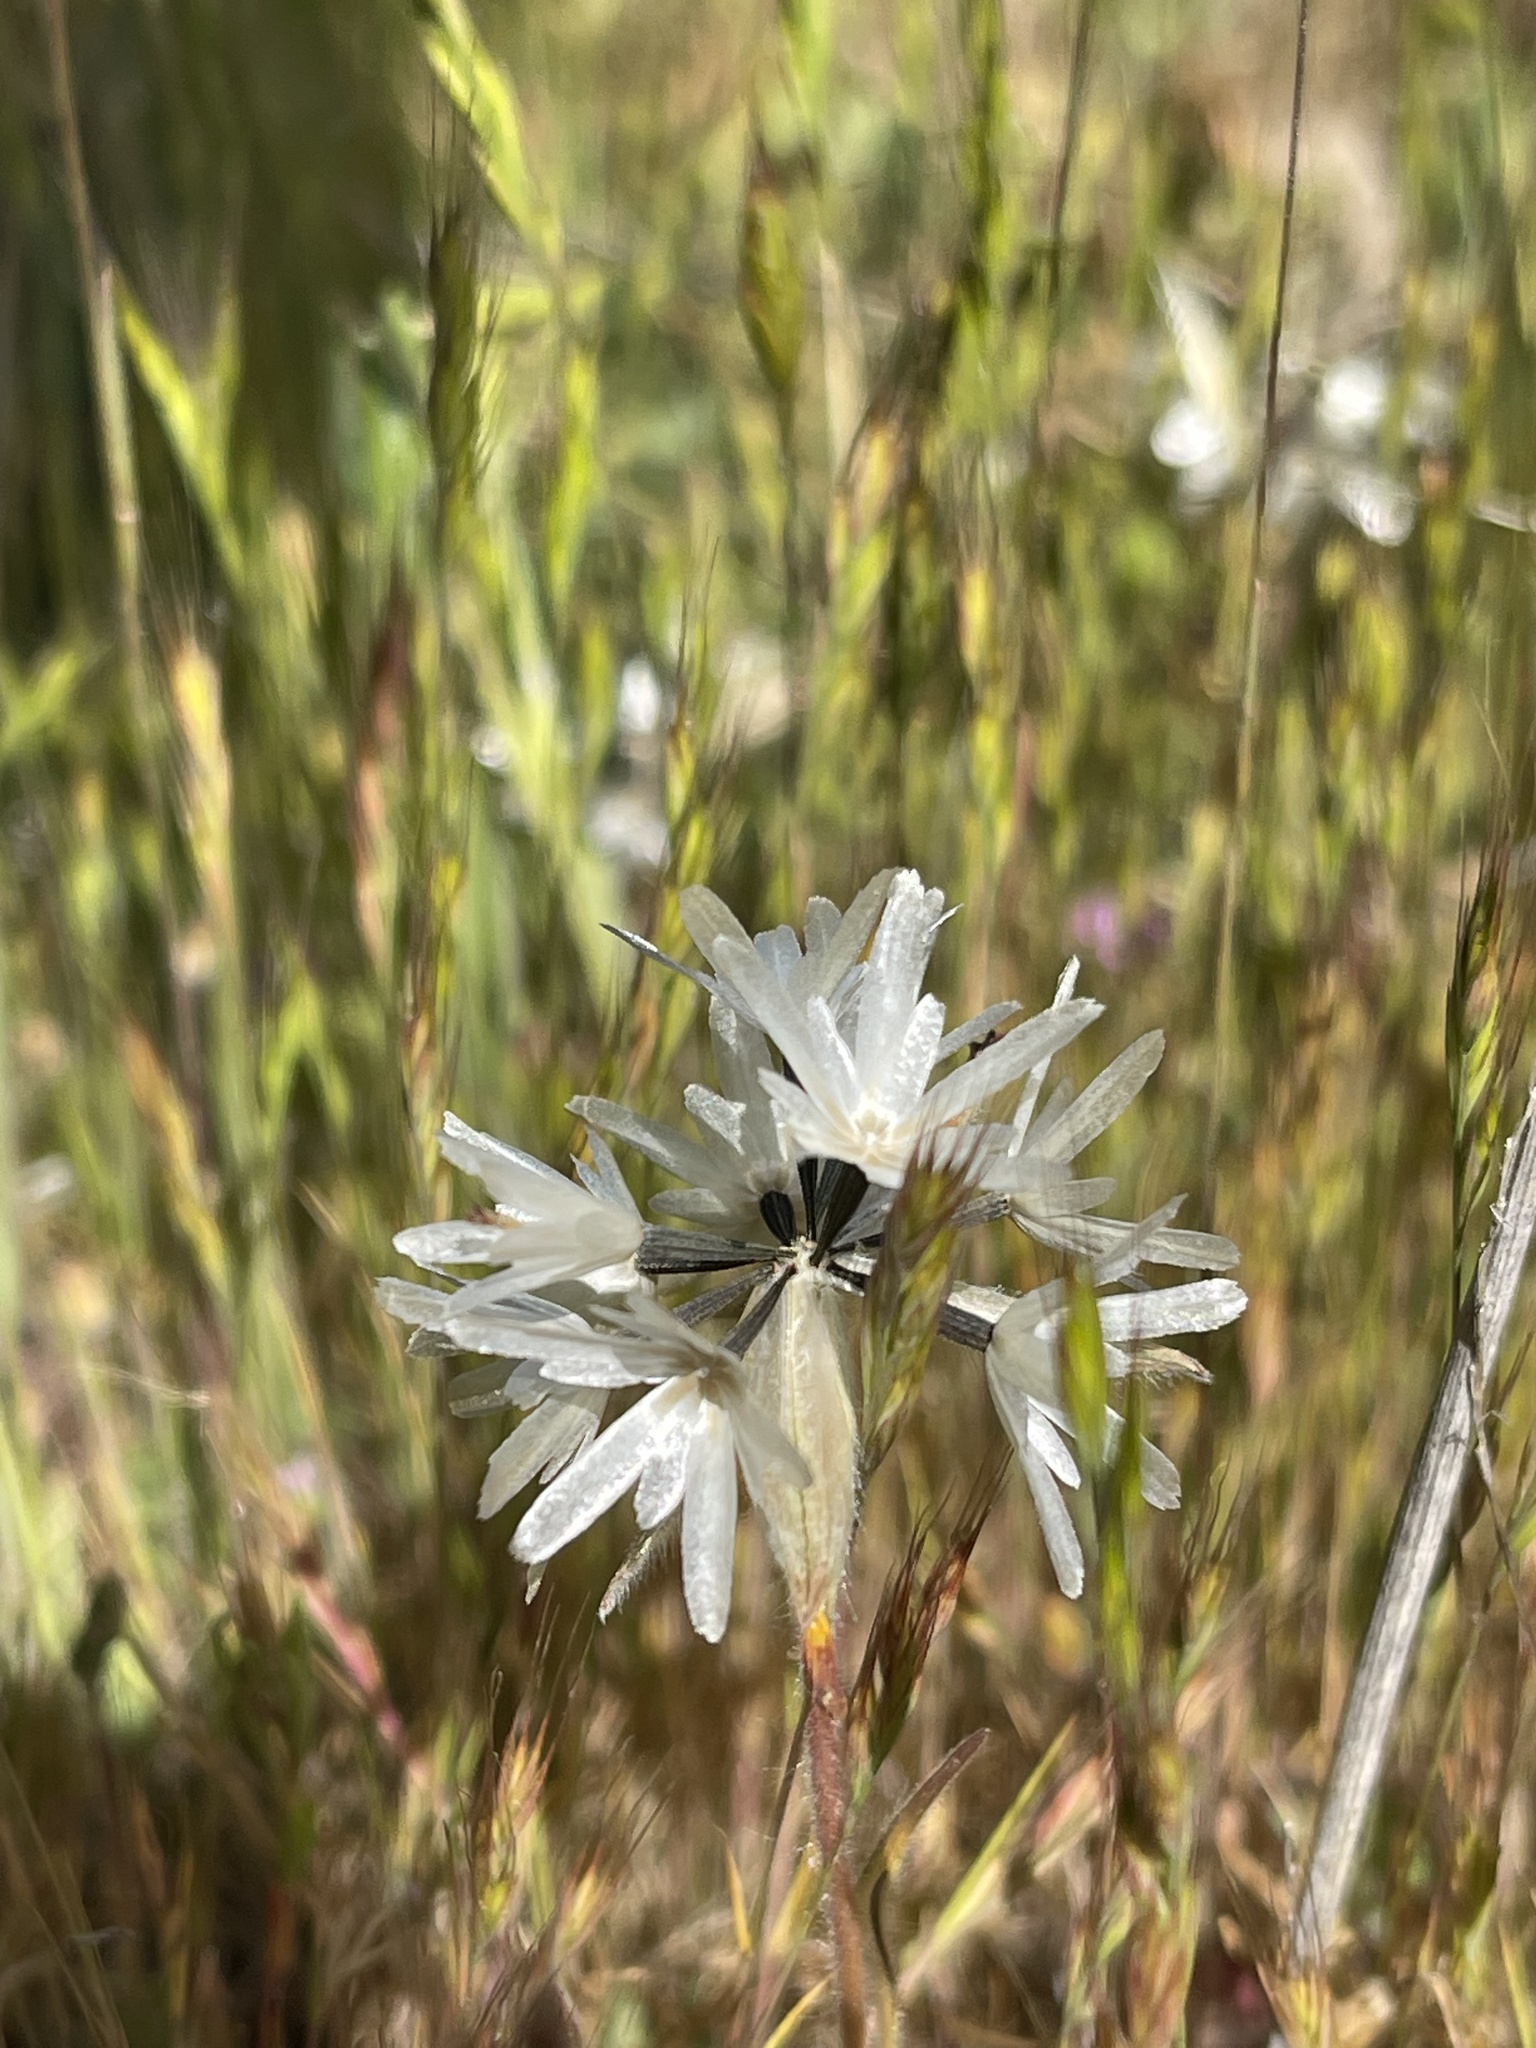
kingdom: Plantae
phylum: Tracheophyta
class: Magnoliopsida
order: Asterales
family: Asteraceae
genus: Achyrachaena
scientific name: Achyrachaena mollis
